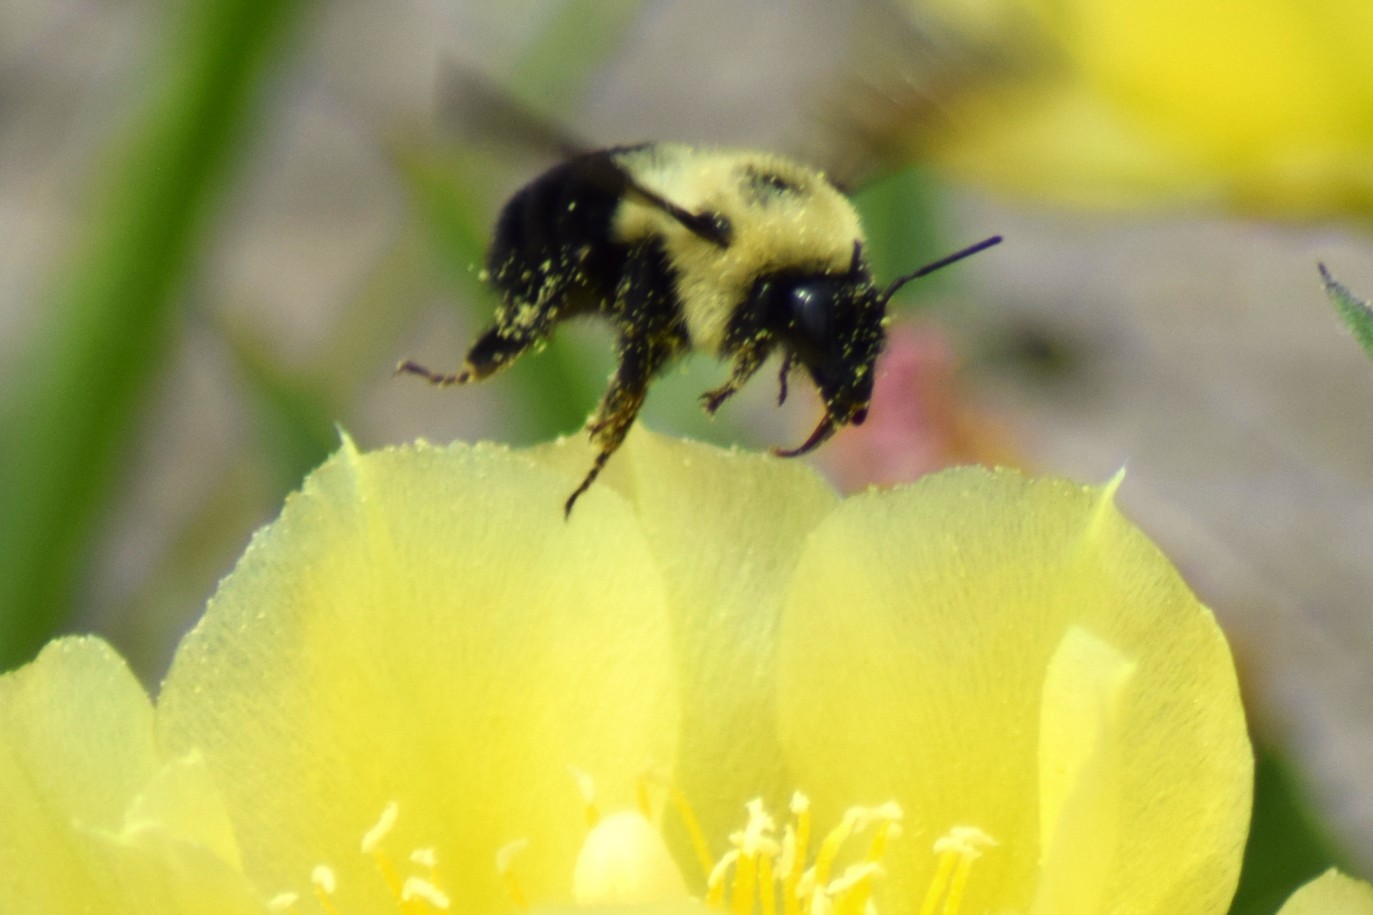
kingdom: Animalia
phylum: Arthropoda
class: Insecta
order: Hymenoptera
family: Apidae
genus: Bombus
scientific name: Bombus bimaculatus
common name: Two-spotted bumble bee
